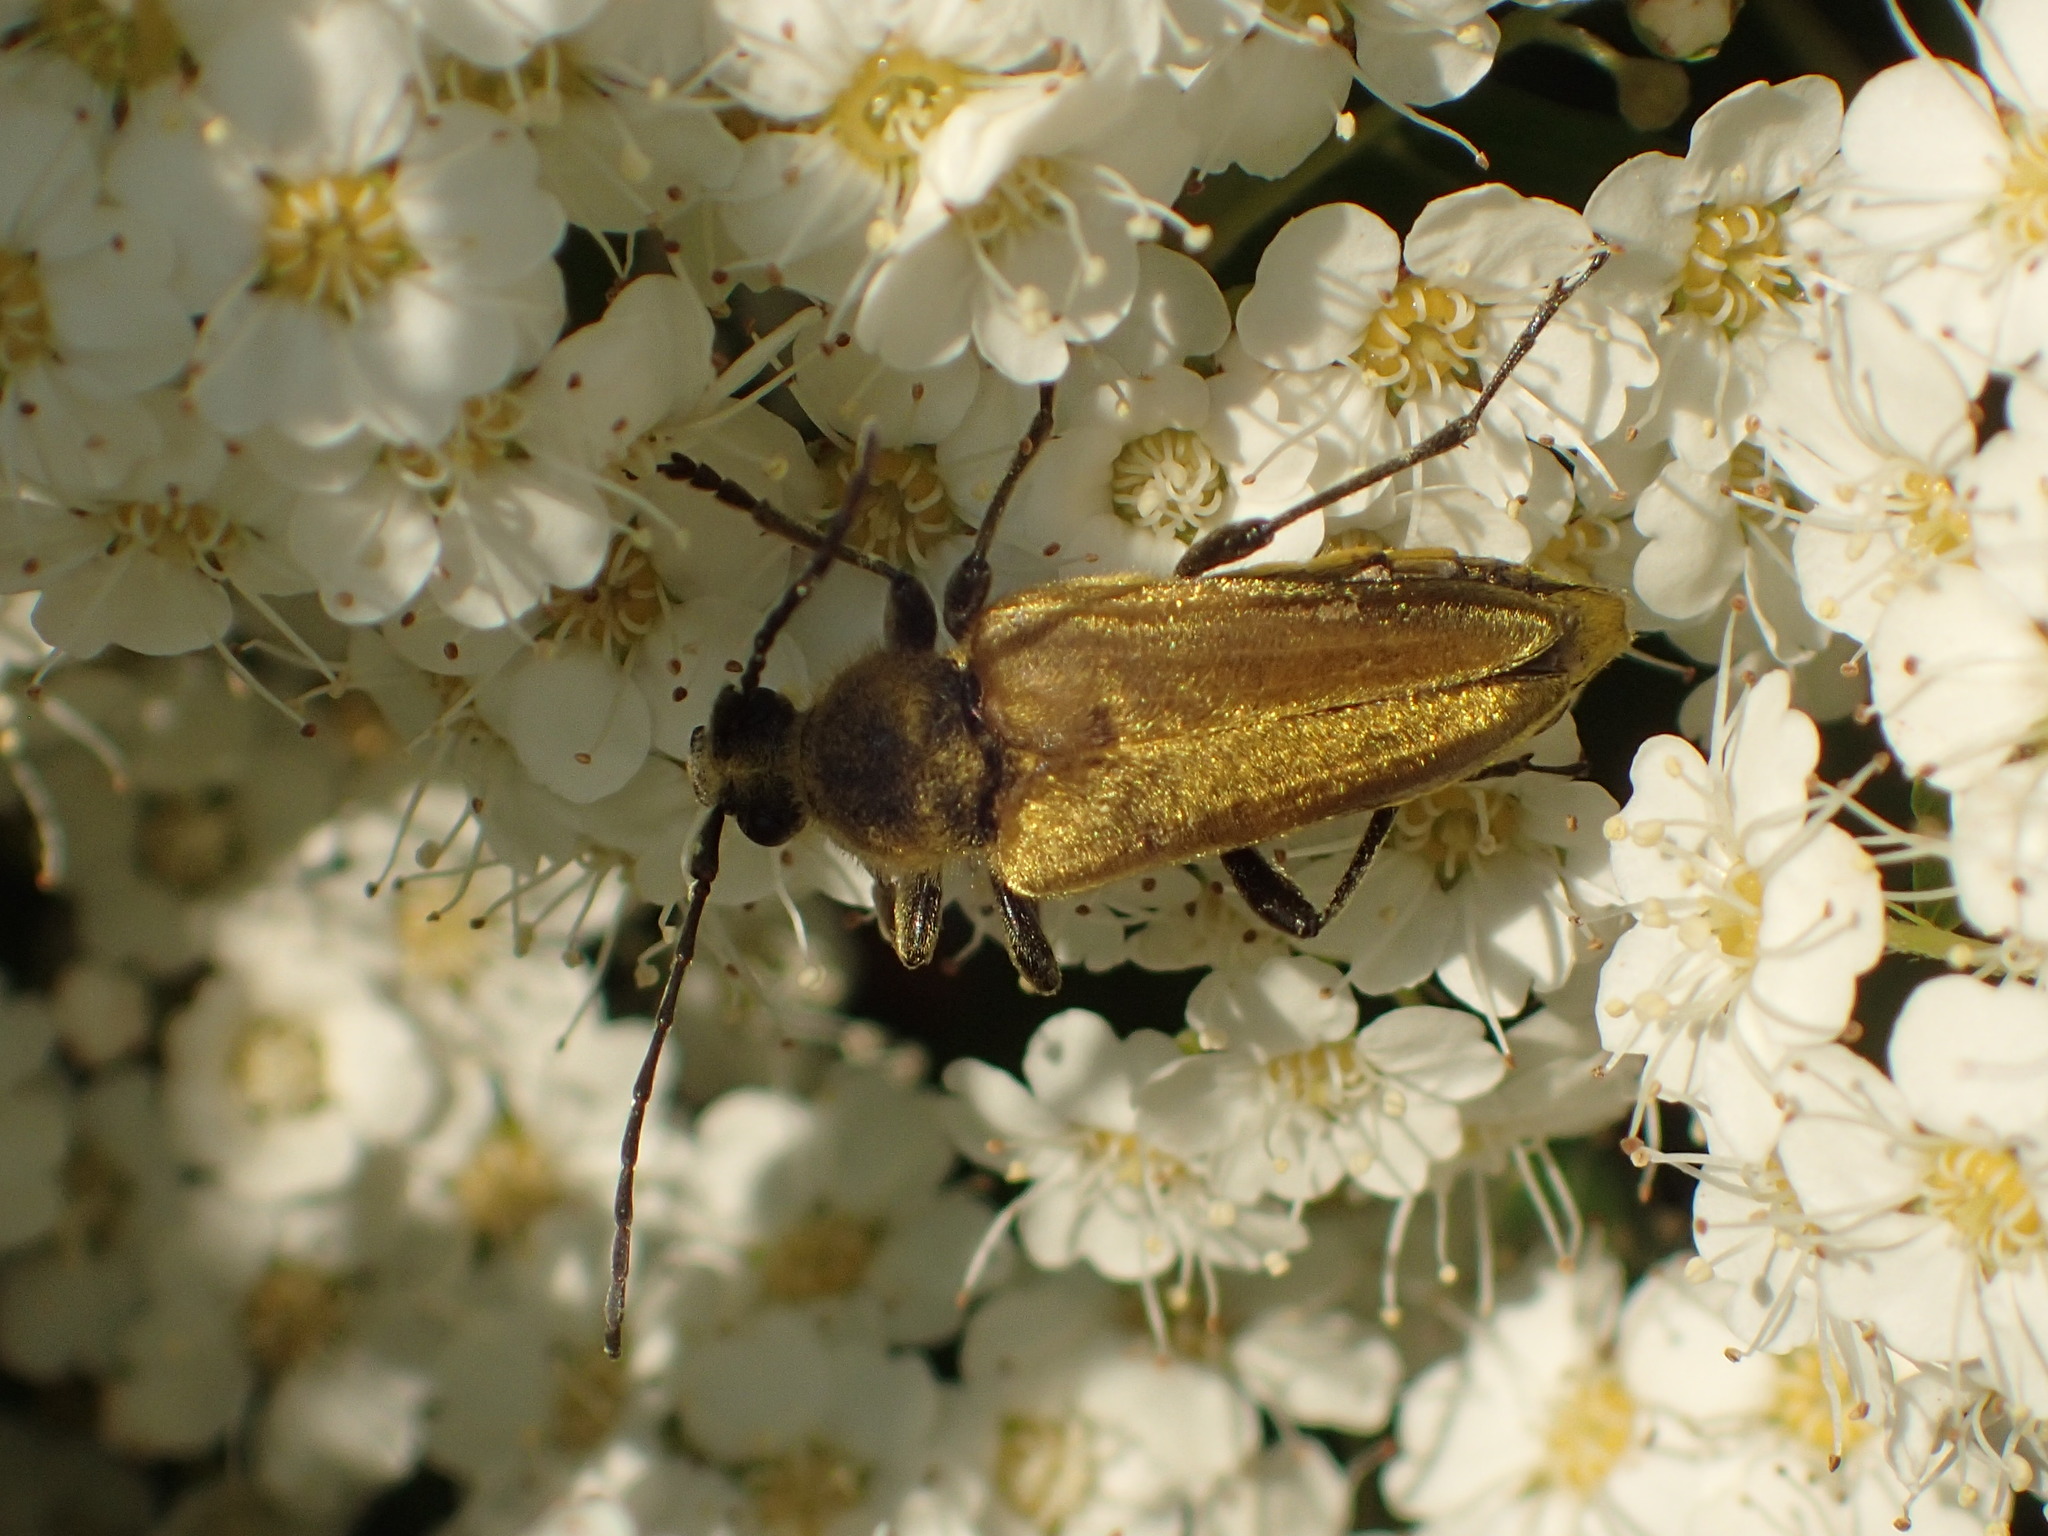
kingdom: Animalia
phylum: Arthropoda
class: Insecta
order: Coleoptera
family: Cerambycidae
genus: Cosmosalia
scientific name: Cosmosalia chrysocoma
